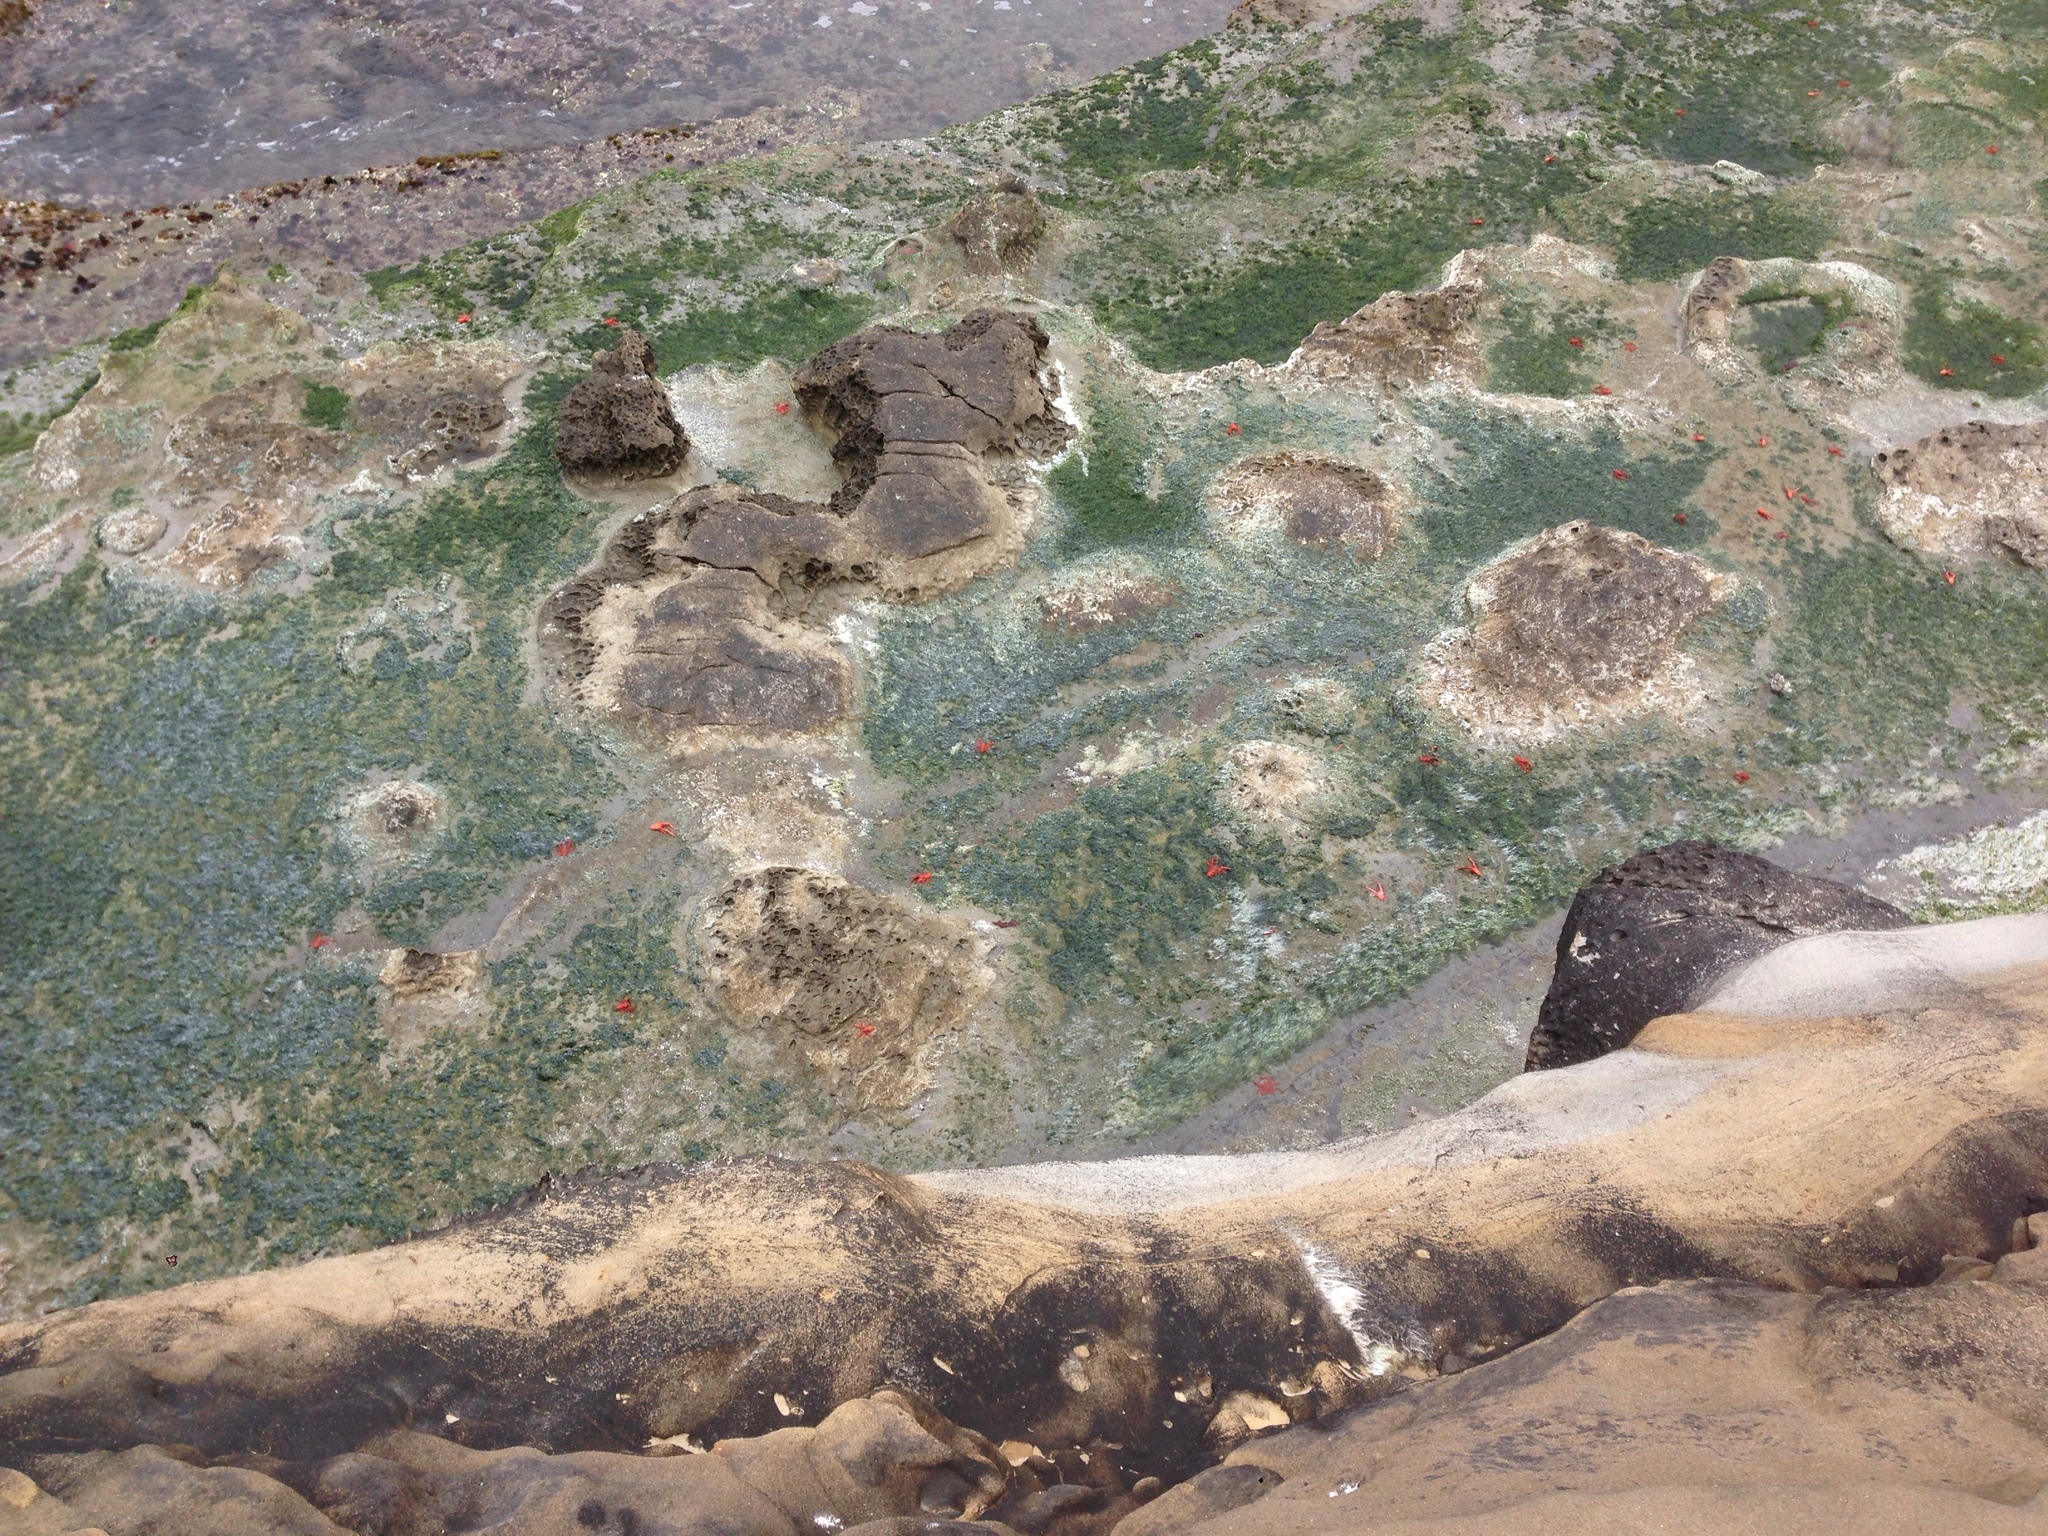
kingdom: Animalia
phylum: Arthropoda
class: Malacostraca
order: Decapoda
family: Munididae
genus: Grimothea
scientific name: Grimothea planipes
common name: Pelagic red crab
